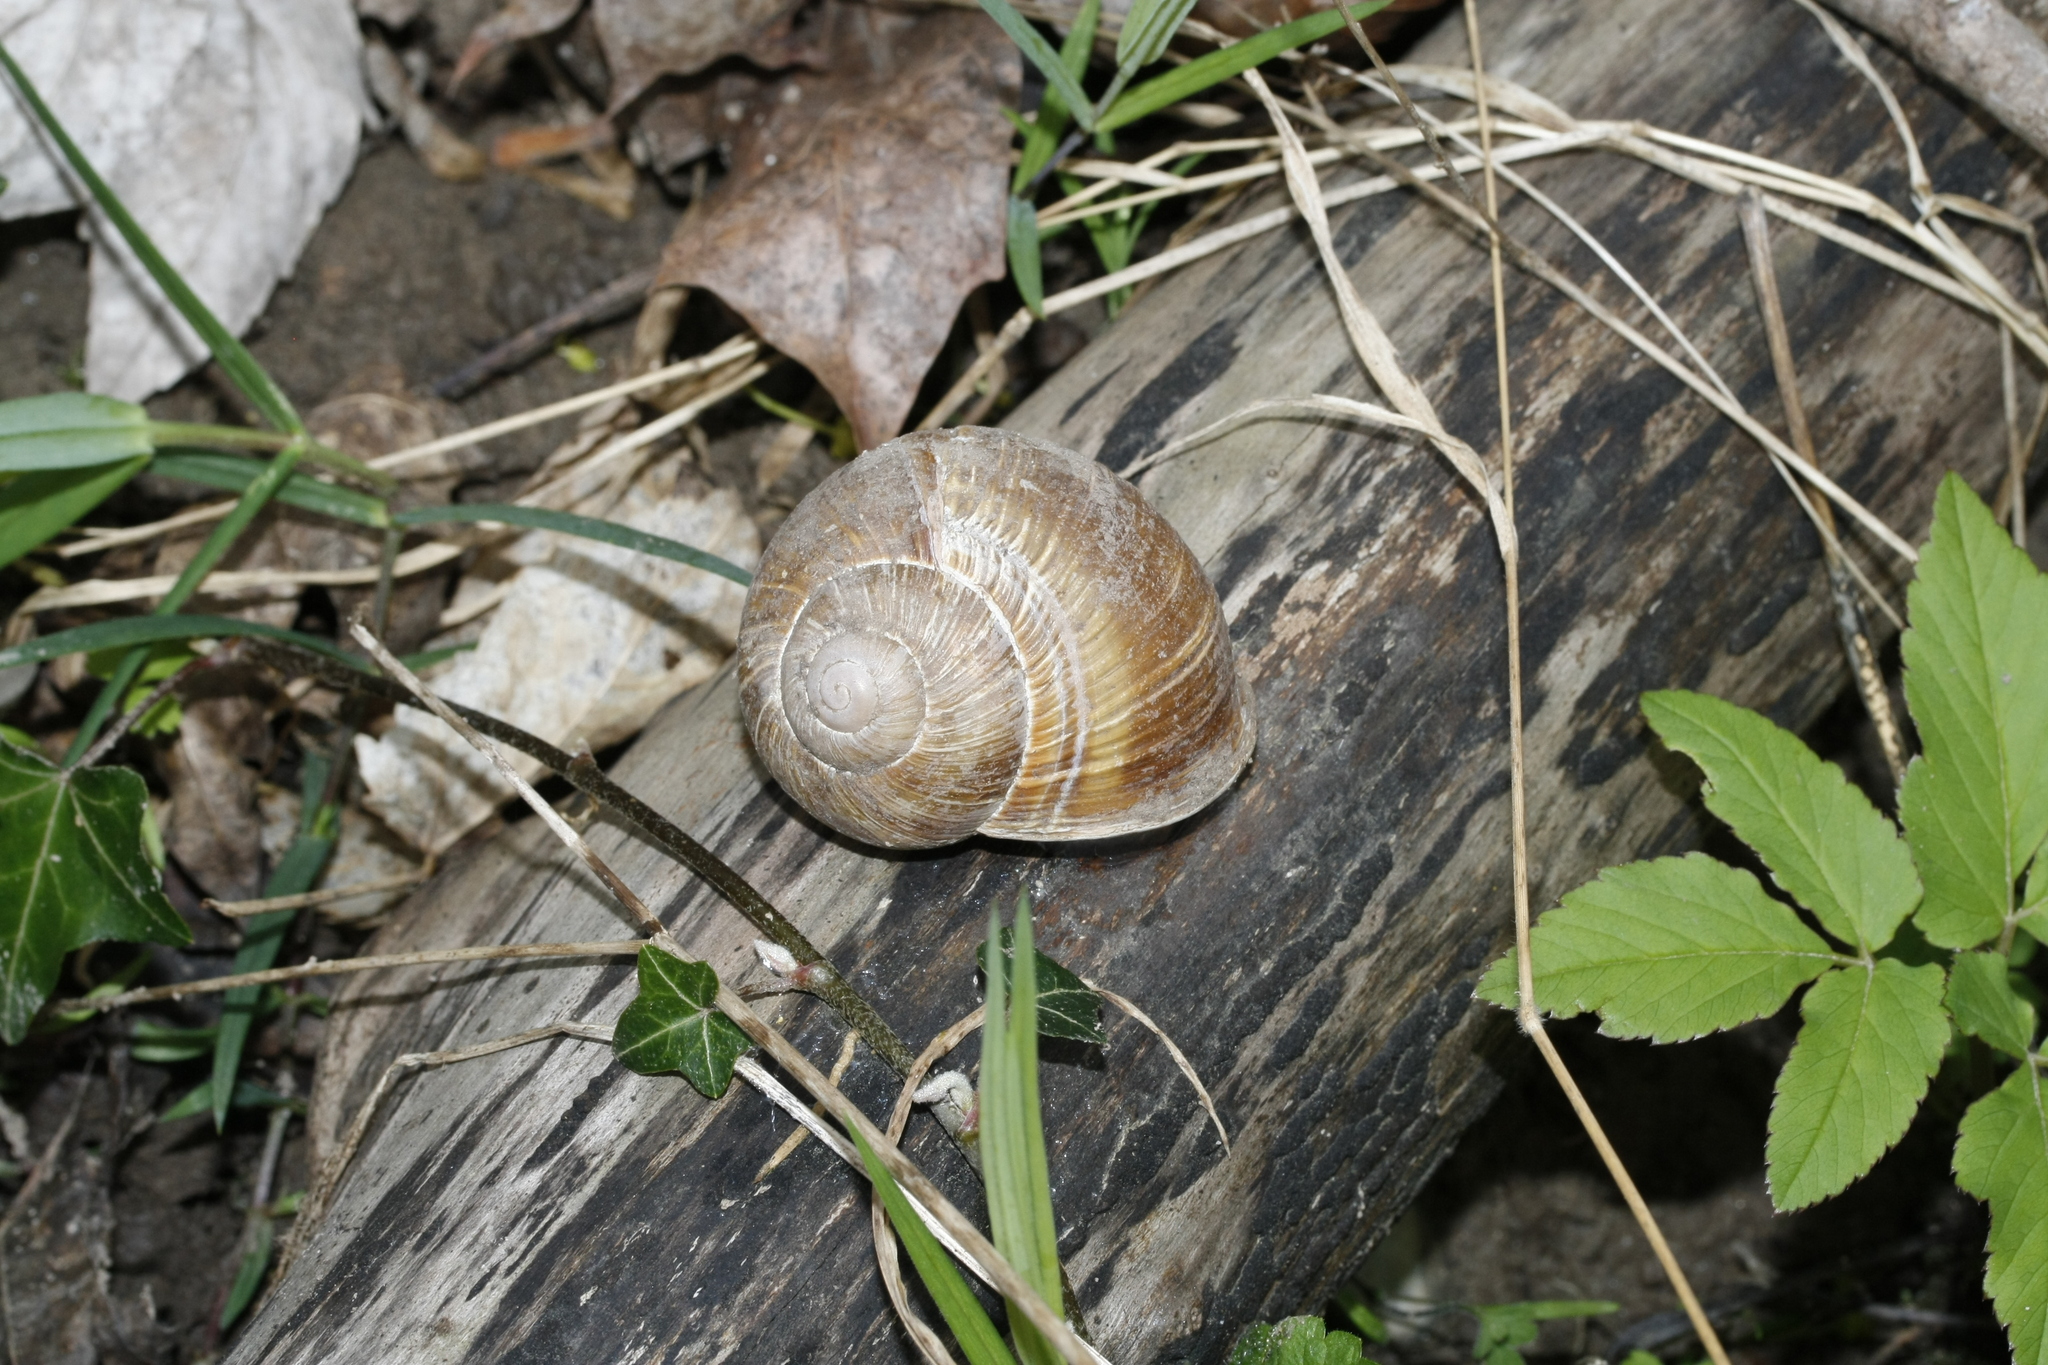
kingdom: Animalia
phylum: Mollusca
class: Gastropoda
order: Stylommatophora
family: Helicidae
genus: Helix
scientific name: Helix pomatia
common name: Roman snail
